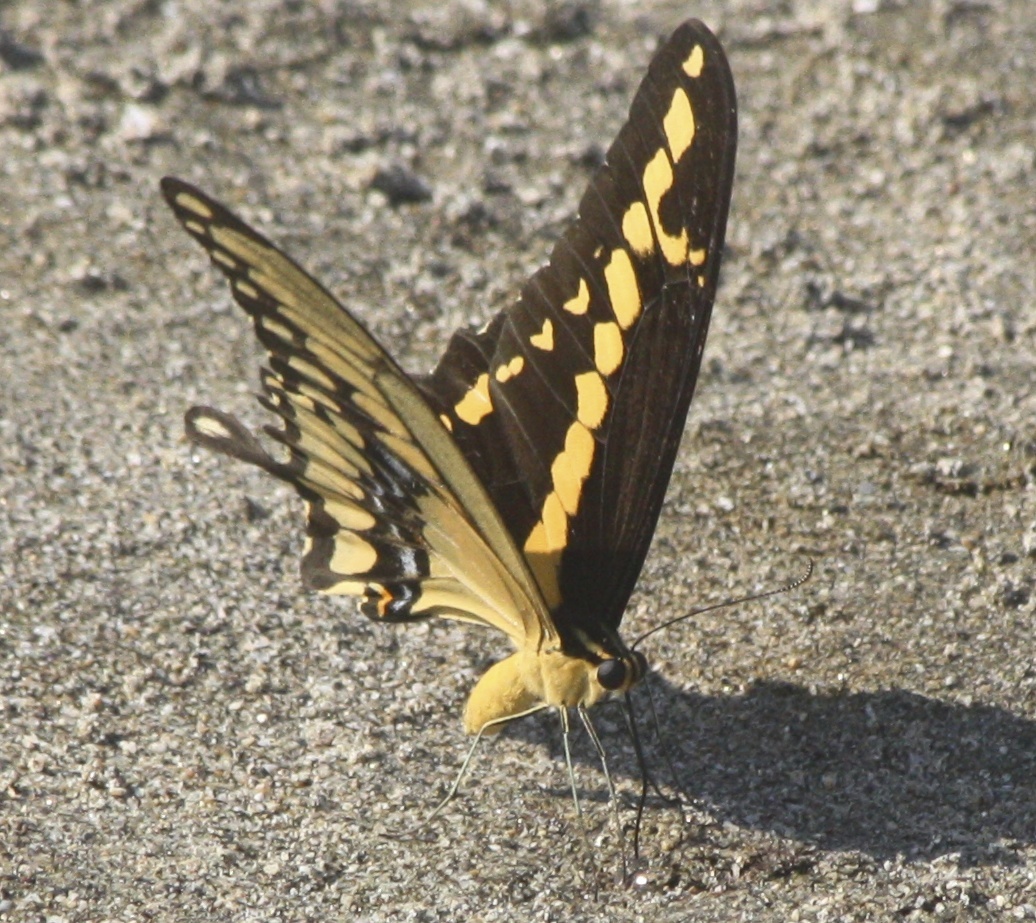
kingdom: Animalia
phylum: Arthropoda
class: Insecta
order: Lepidoptera
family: Papilionidae
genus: Papilio
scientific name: Papilio rumiko
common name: Western giant swallowtail
